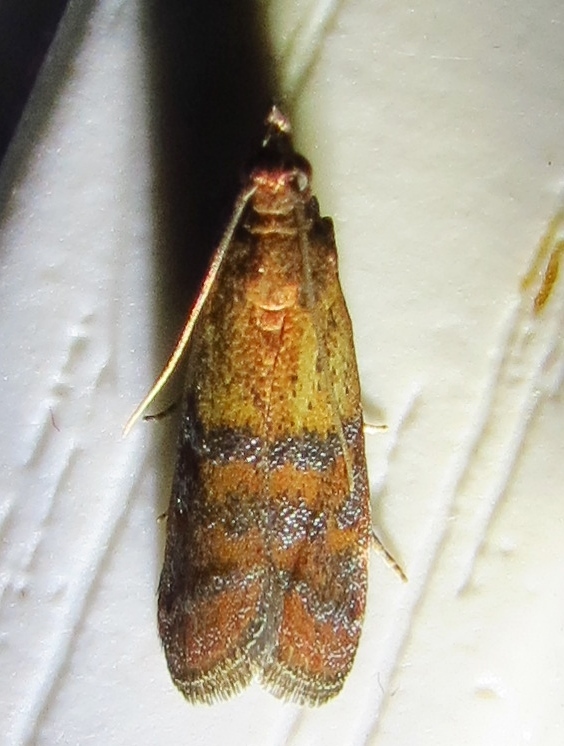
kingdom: Animalia
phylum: Arthropoda
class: Insecta
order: Lepidoptera
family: Pyralidae
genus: Plodia
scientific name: Plodia interpunctella
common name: Indian meal moth
